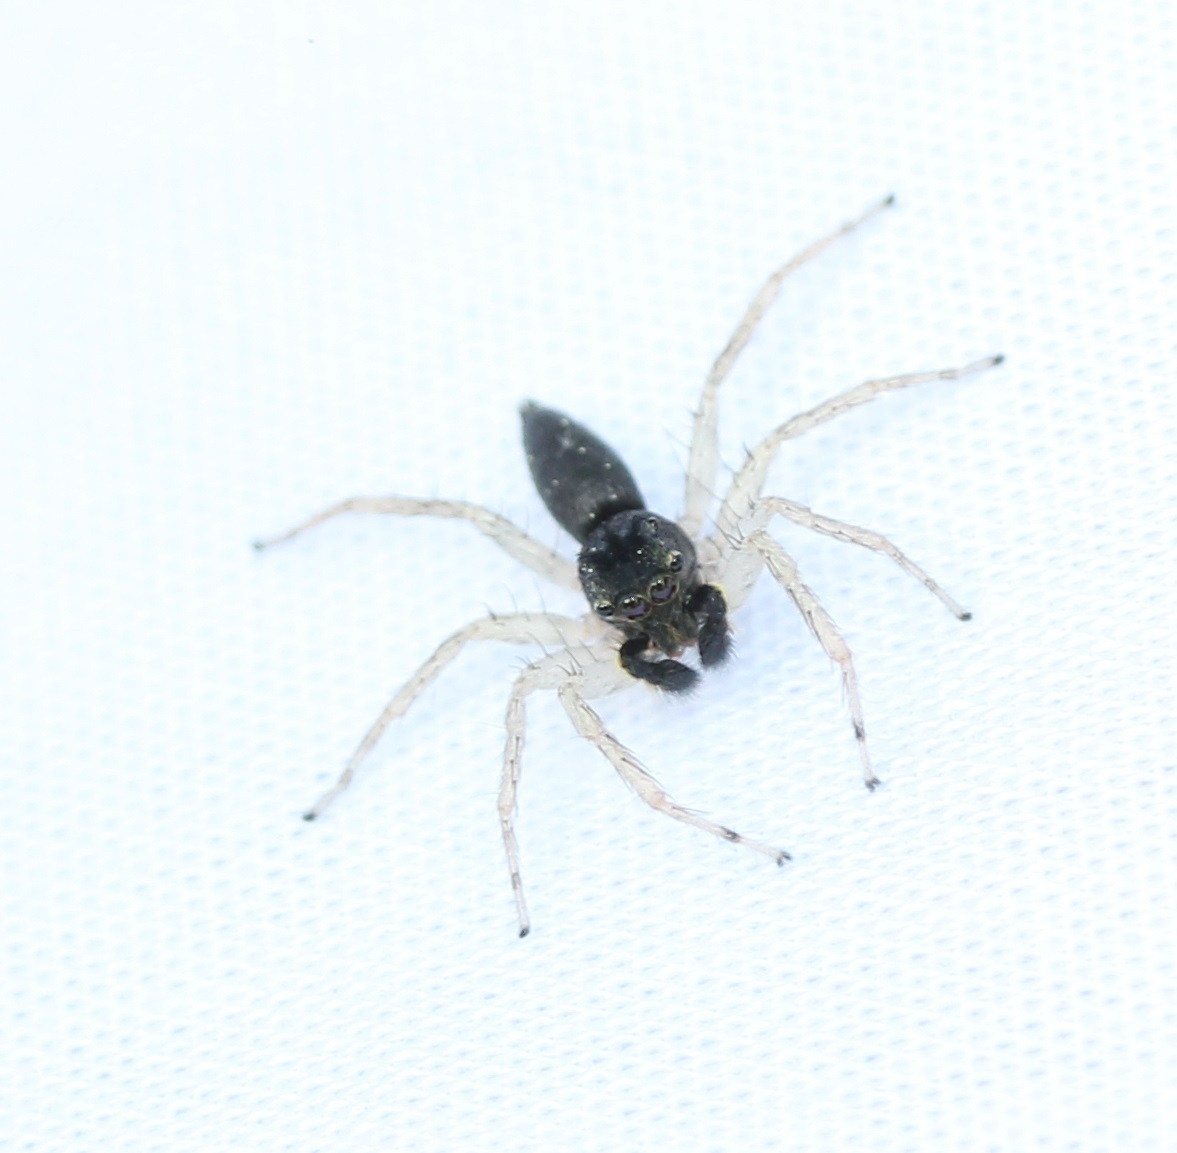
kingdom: Animalia
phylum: Arthropoda
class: Arachnida
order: Araneae
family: Salticidae
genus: Maevia
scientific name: Maevia inclemens
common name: Dimorphic jumper
